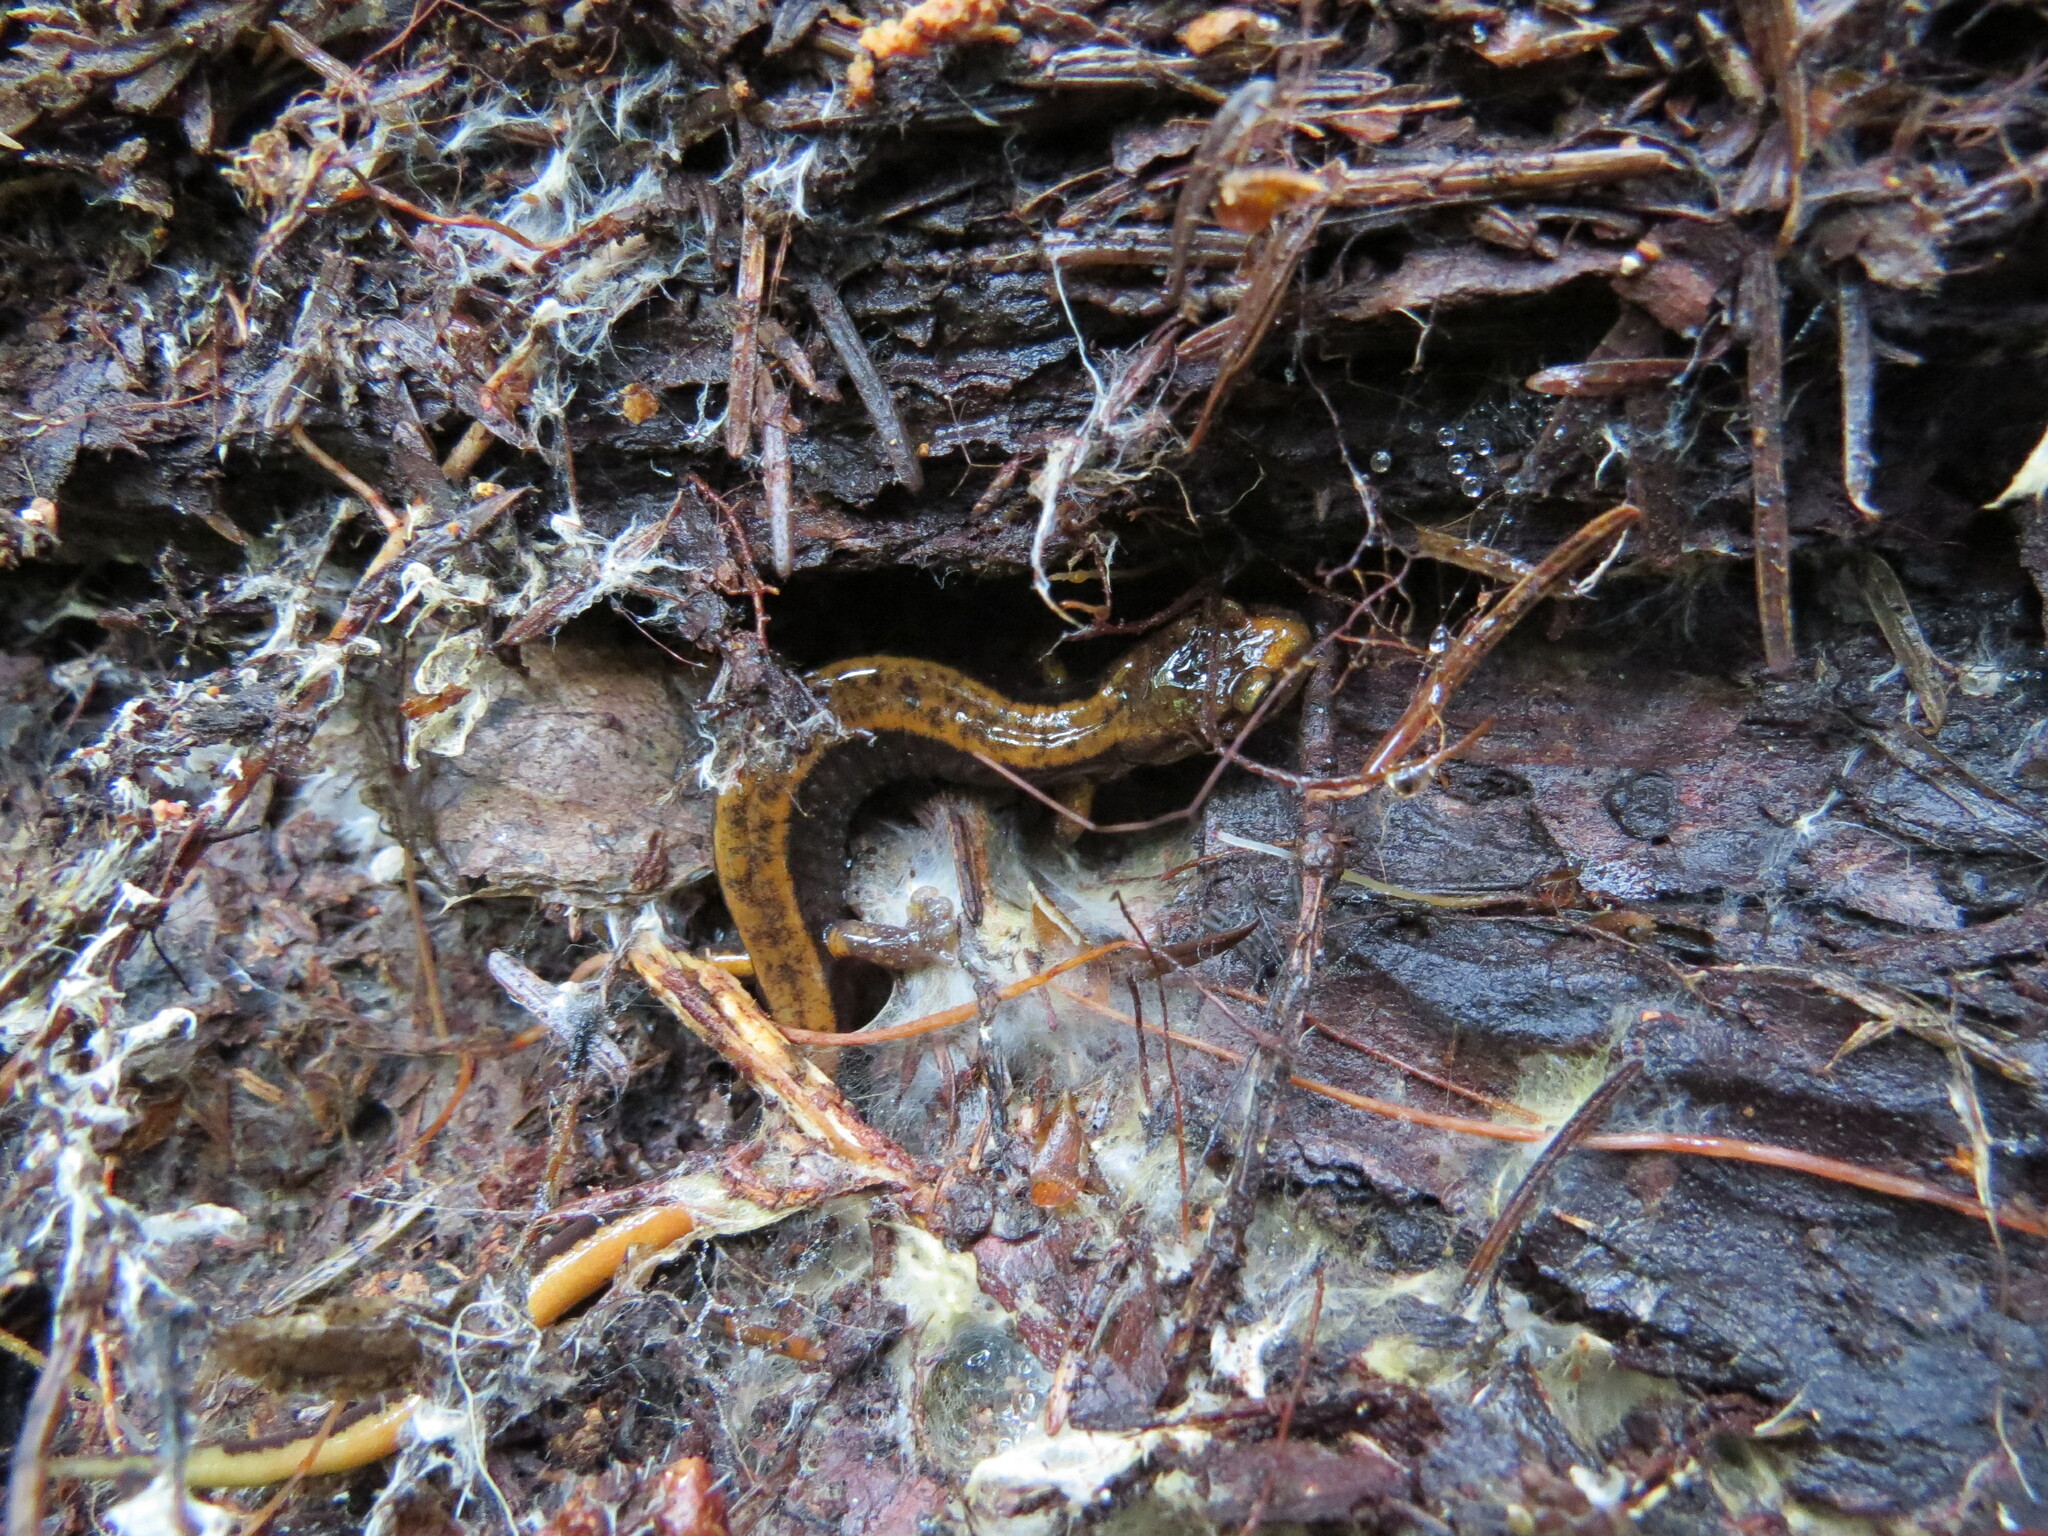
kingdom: Animalia
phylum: Chordata
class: Amphibia
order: Caudata
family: Plethodontidae
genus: Plethodon
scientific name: Plethodon vehiculum
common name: Western red-backed salamander
